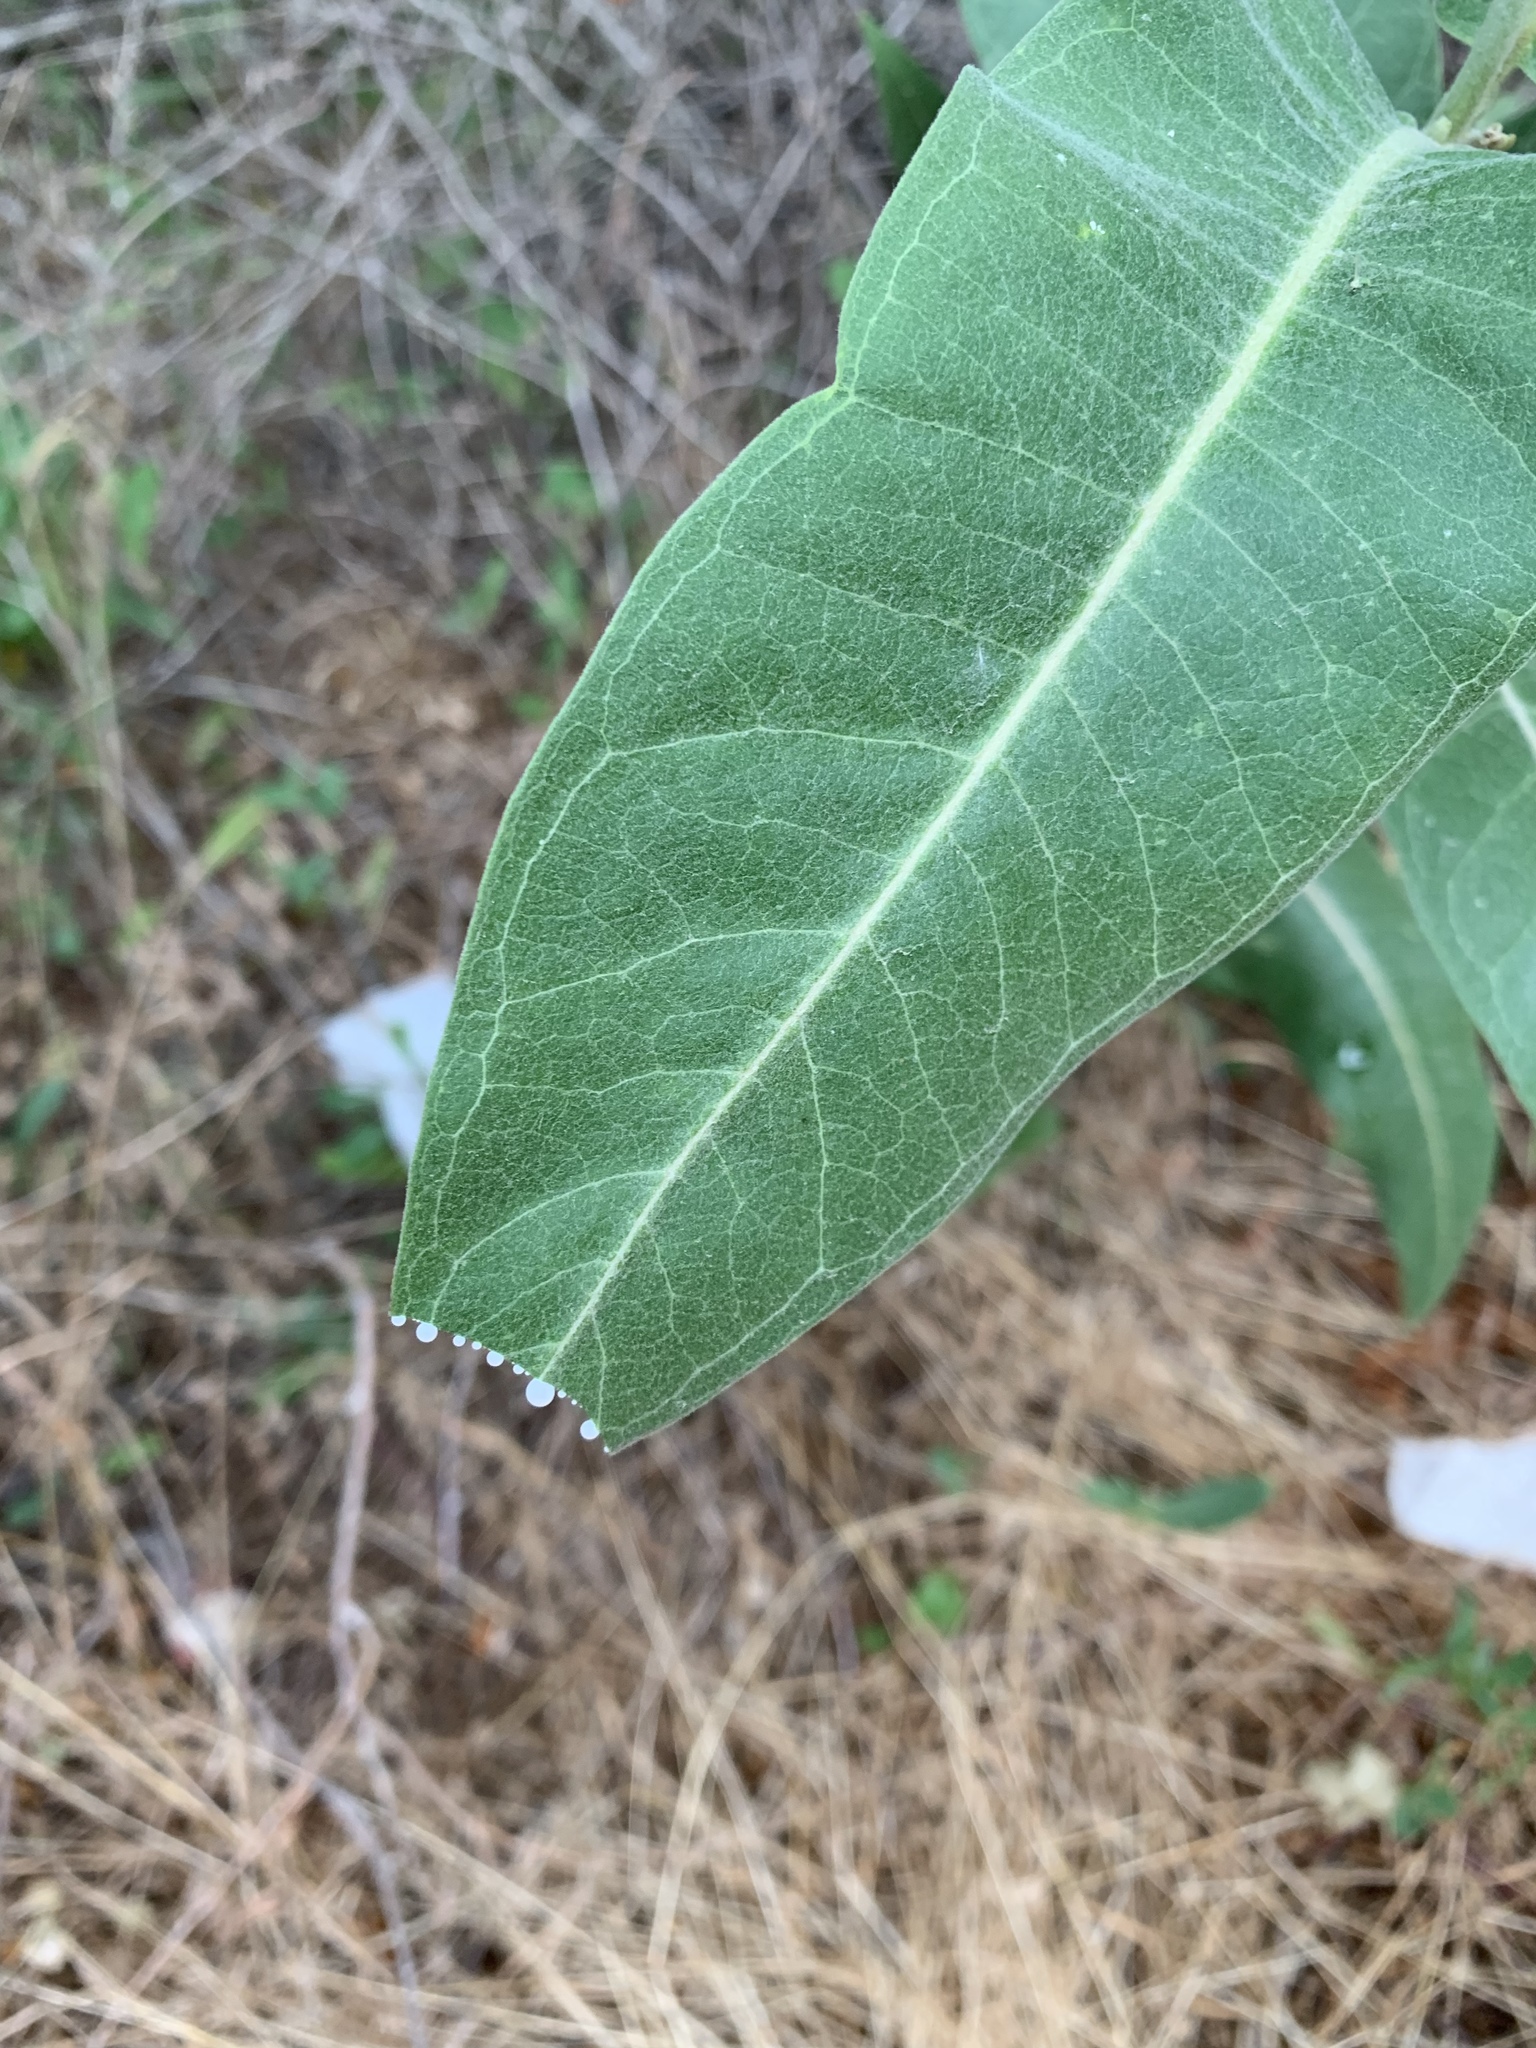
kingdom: Plantae
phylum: Tracheophyta
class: Magnoliopsida
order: Gentianales
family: Apocynaceae
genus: Asclepias
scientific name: Asclepias speciosa
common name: Showy milkweed
